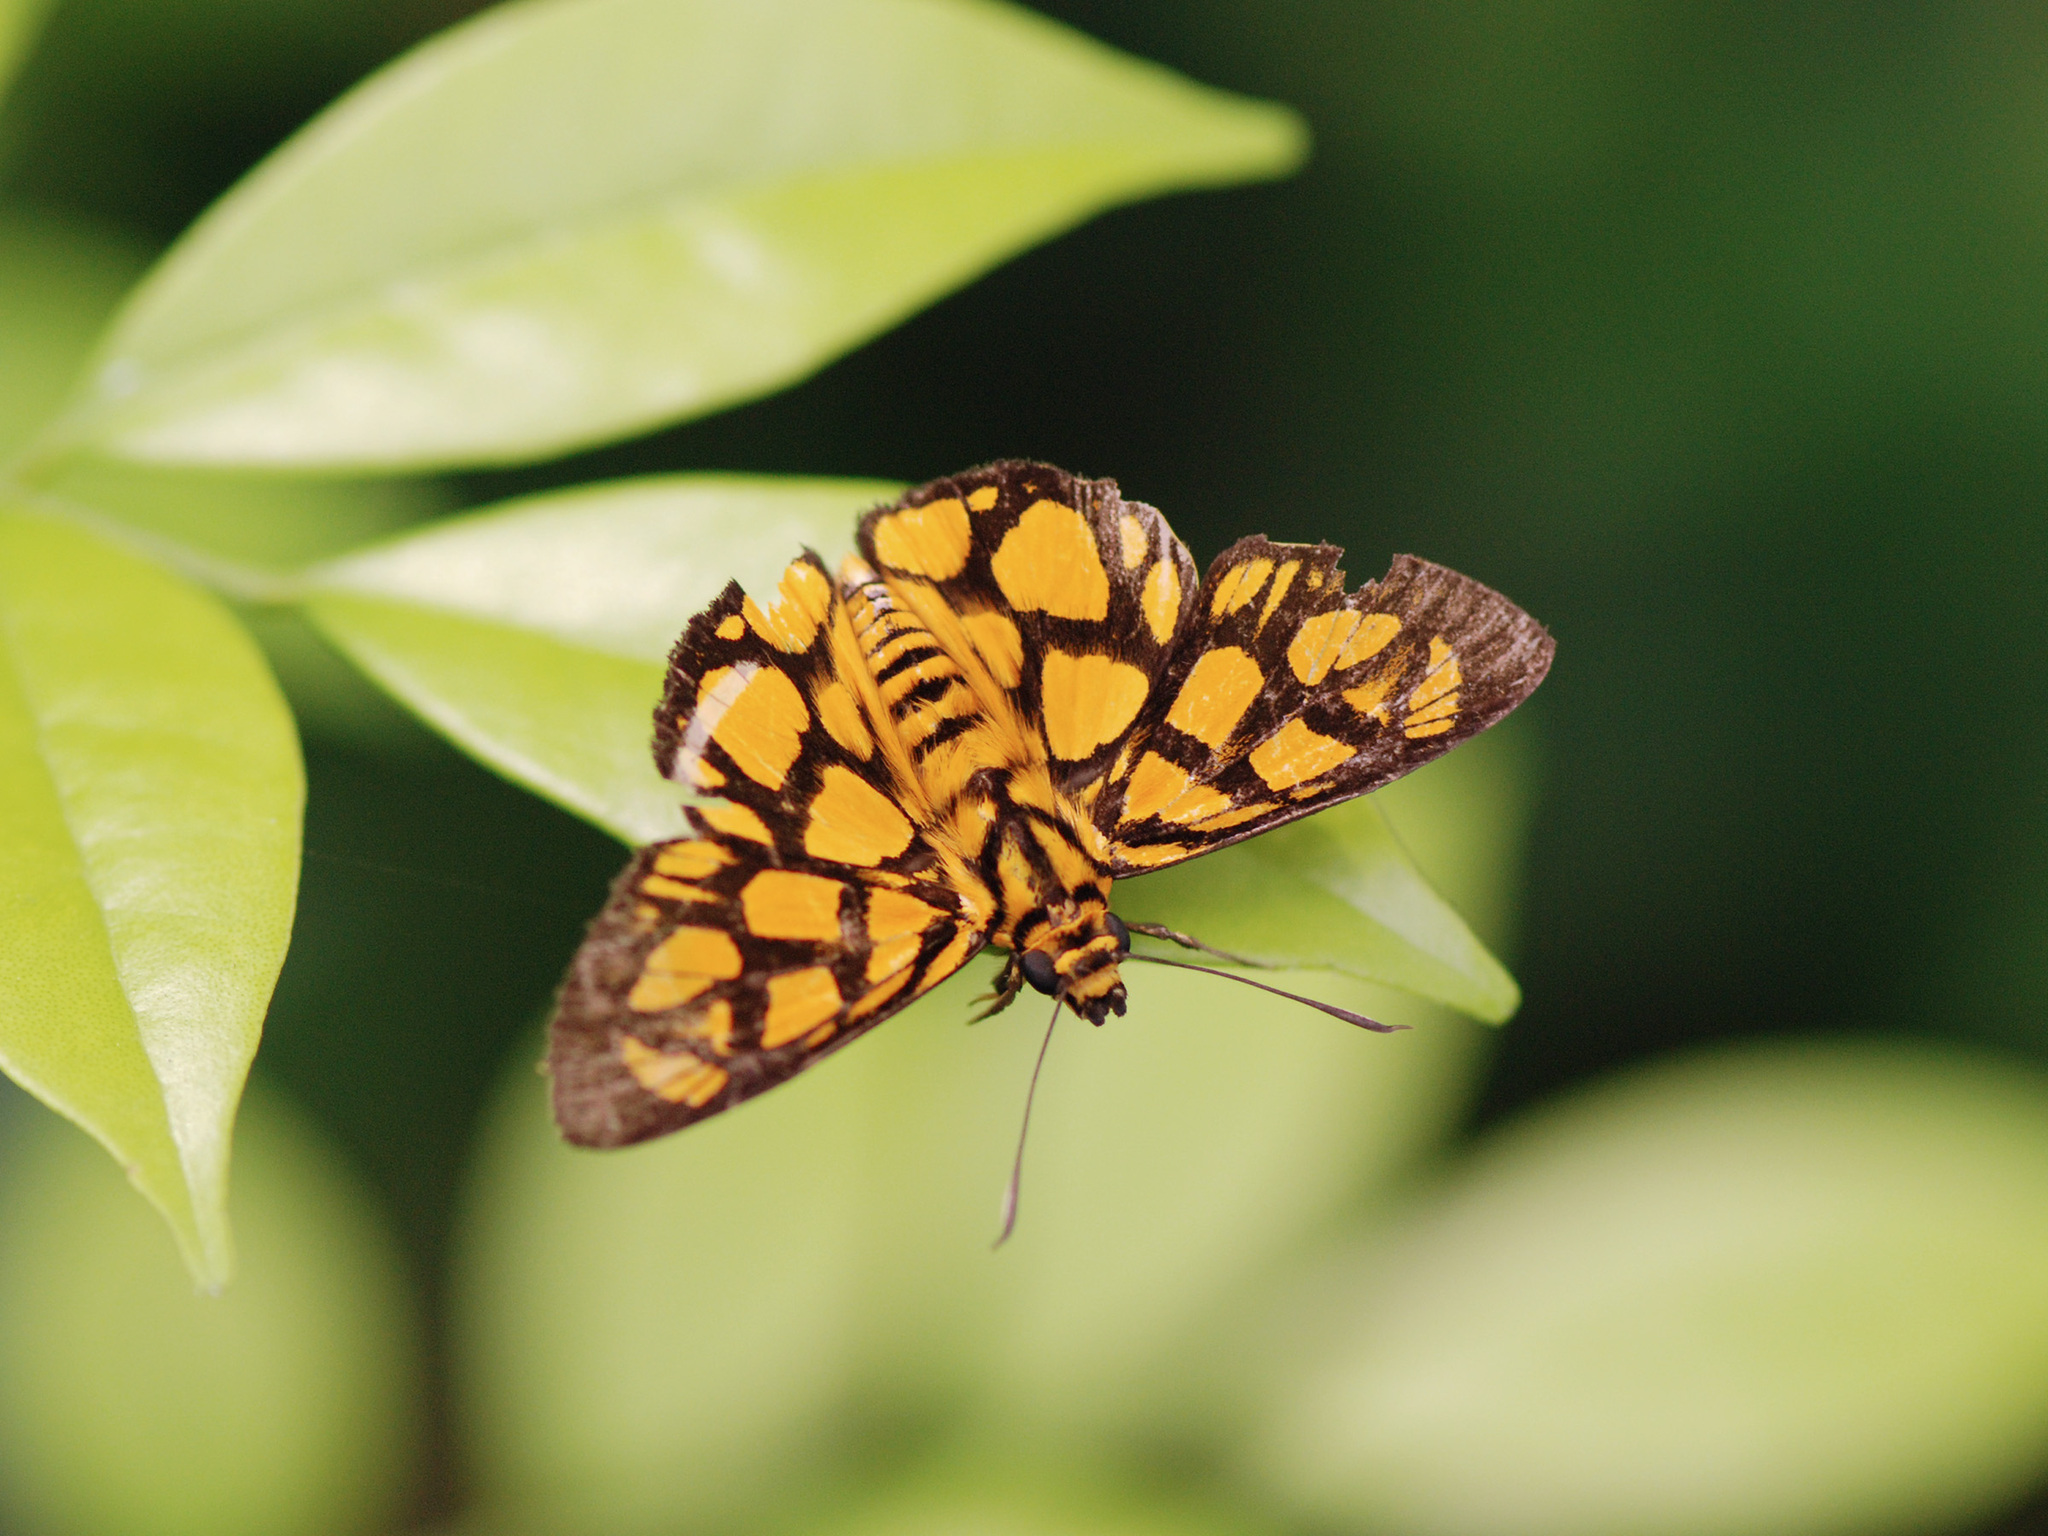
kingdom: Animalia
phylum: Arthropoda
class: Insecta
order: Lepidoptera
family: Hesperiidae
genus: Odina
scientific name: Odina hieroglyphica
